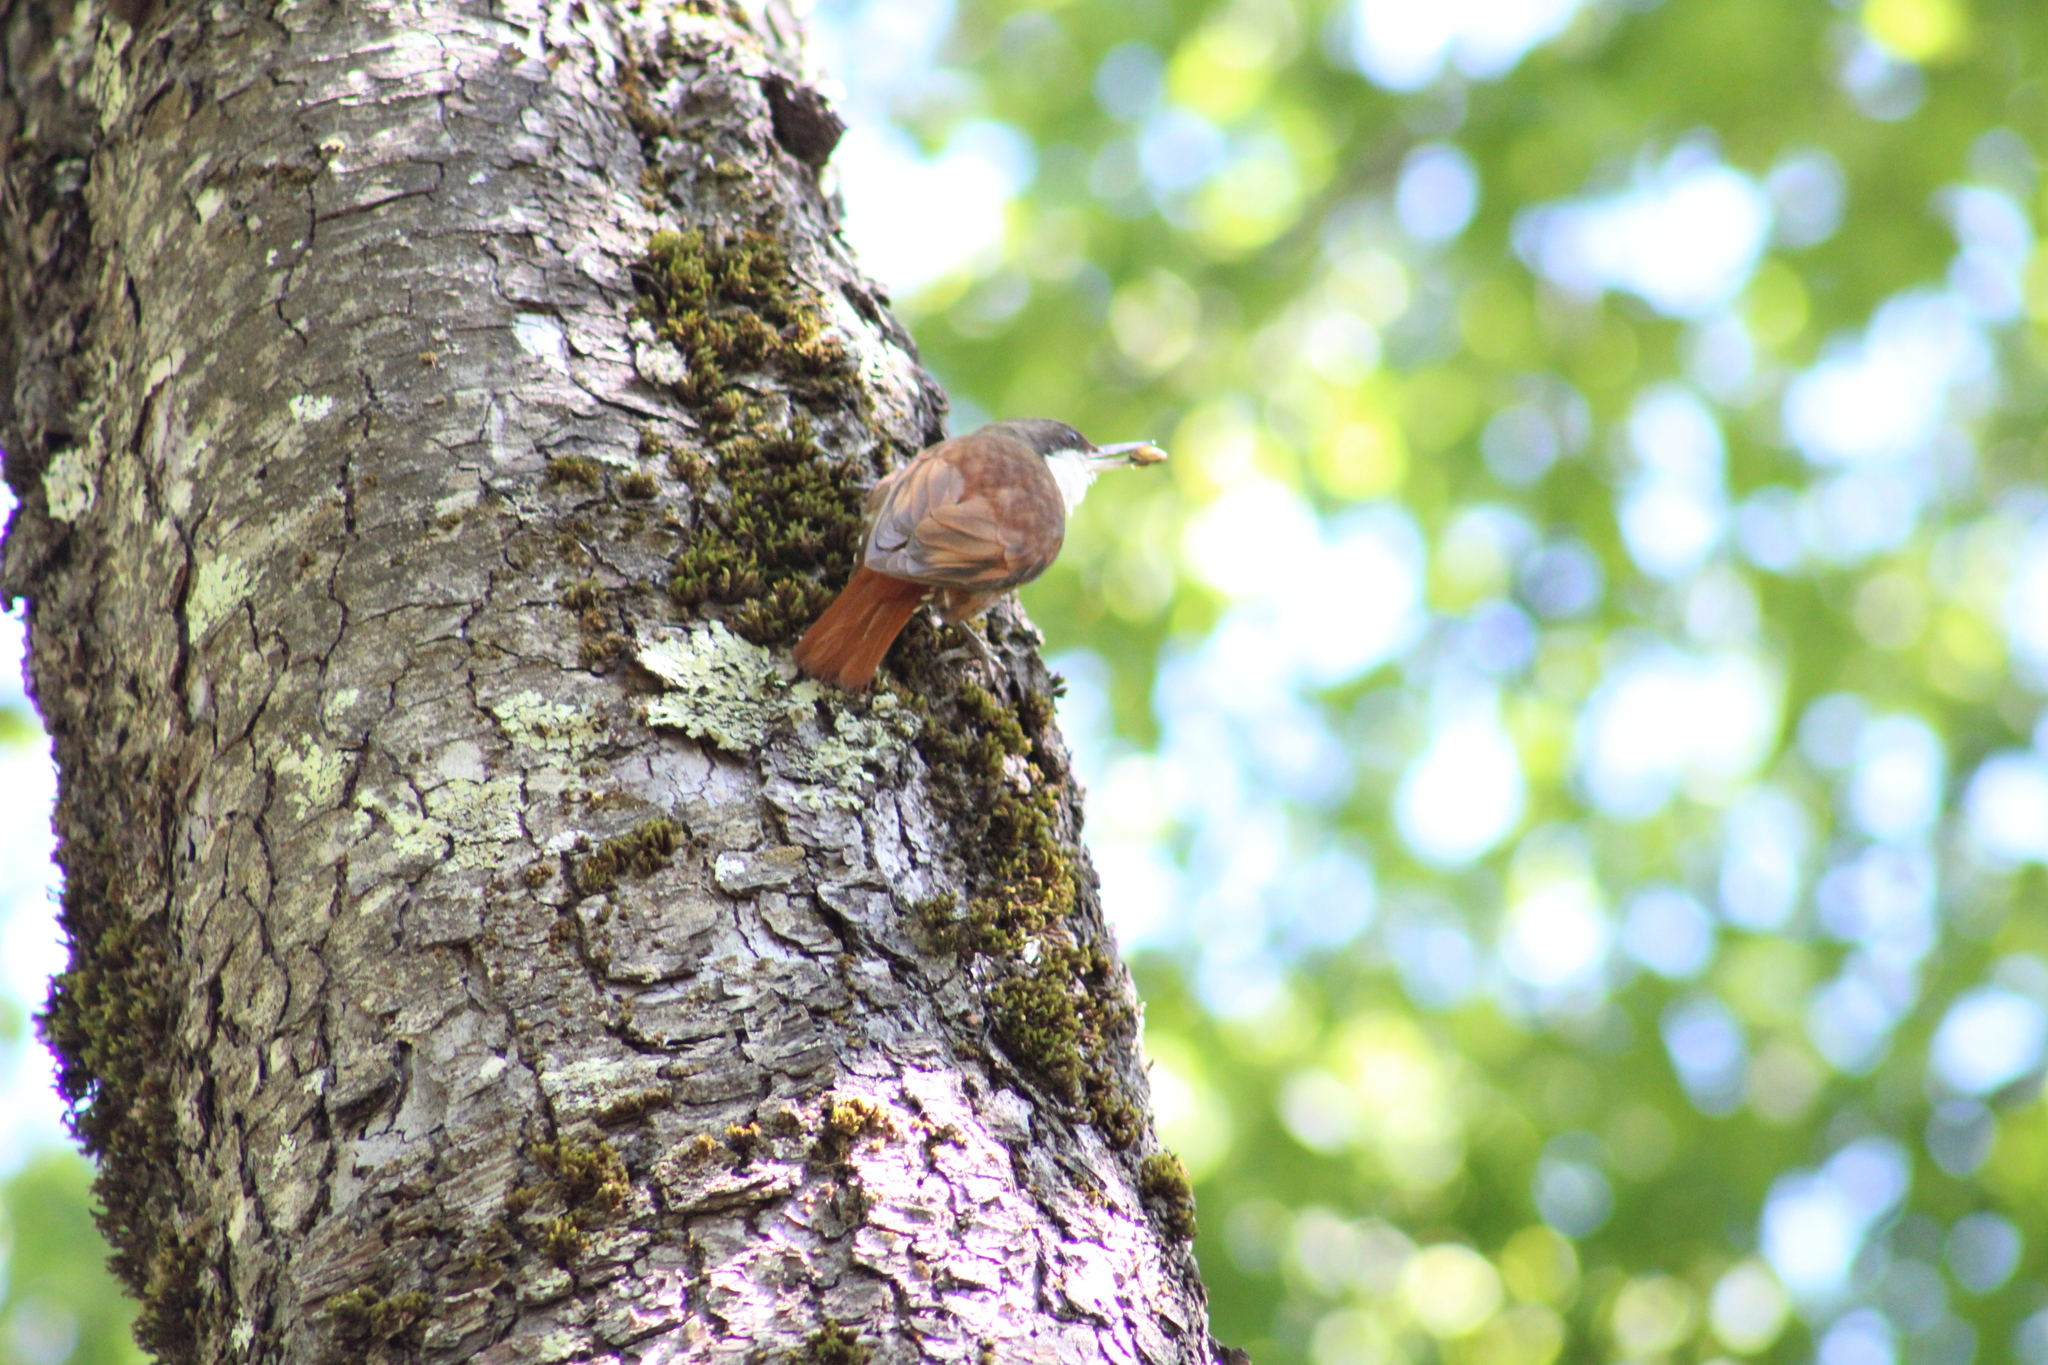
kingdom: Animalia
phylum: Chordata
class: Aves
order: Passeriformes
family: Furnariidae
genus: Pygarrhichas
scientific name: Pygarrhichas albogularis
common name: White-throated treerunner
